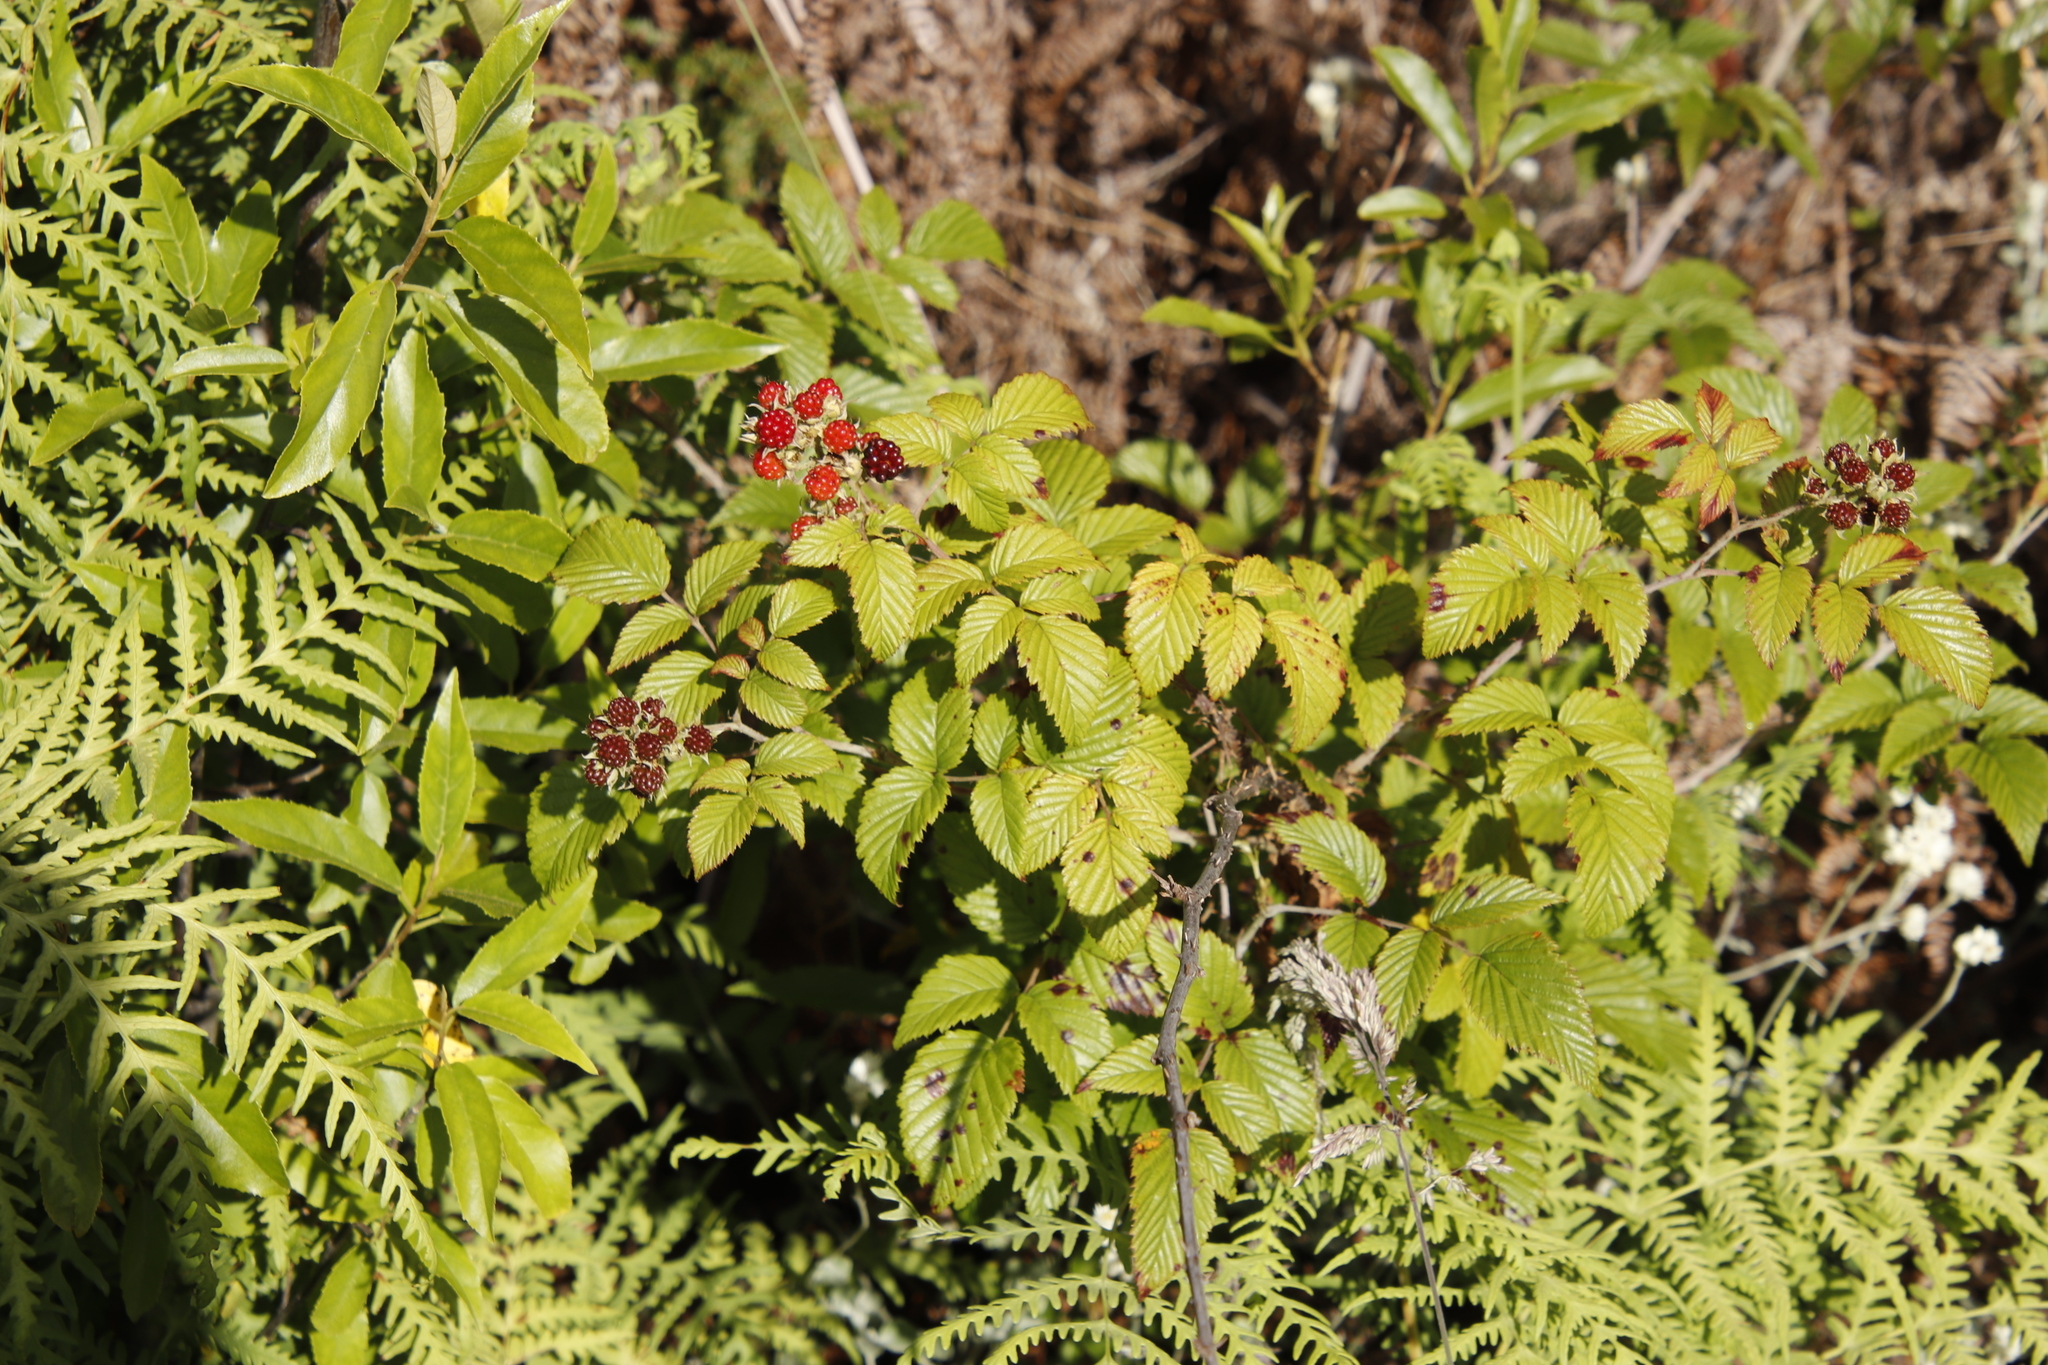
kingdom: Plantae
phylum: Tracheophyta
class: Magnoliopsida
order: Rosales
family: Rosaceae
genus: Rubus
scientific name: Rubus pinnatus
